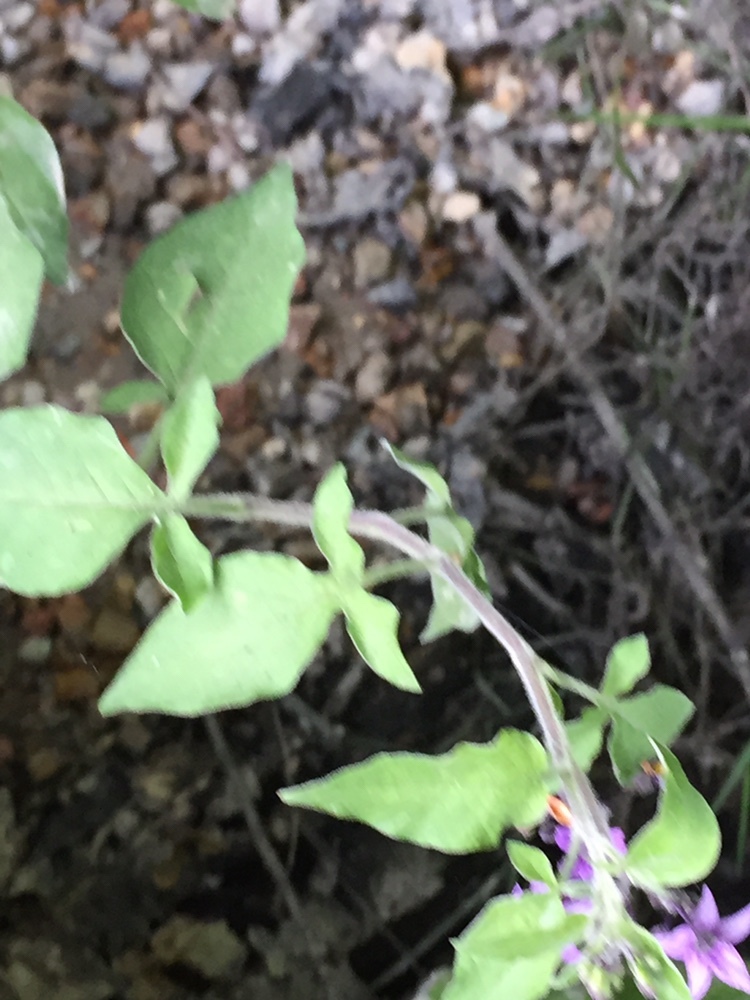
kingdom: Plantae
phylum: Tracheophyta
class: Magnoliopsida
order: Solanales
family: Solanaceae
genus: Solanum
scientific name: Solanum dulcamara
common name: Climbing nightshade
